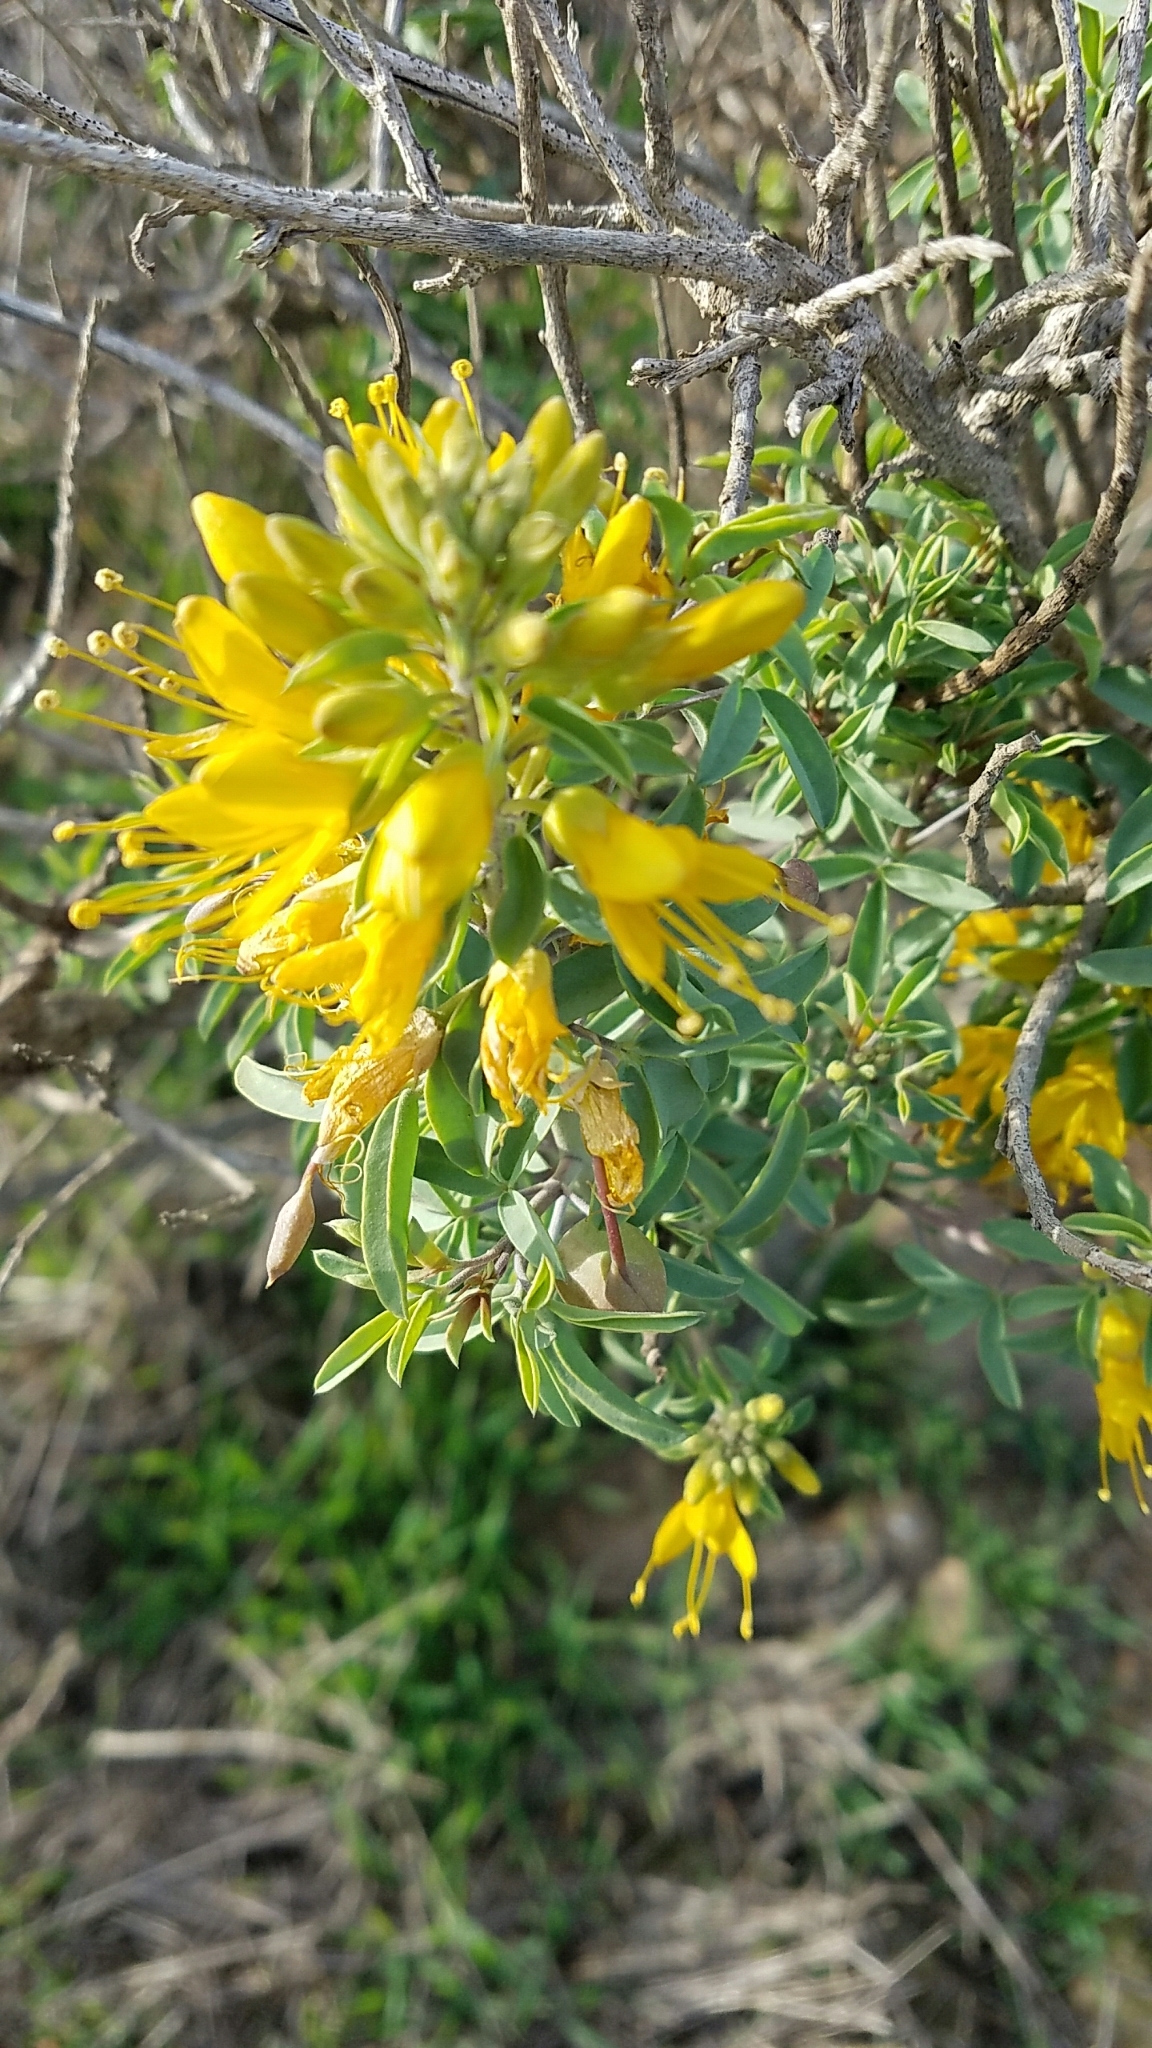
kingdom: Plantae
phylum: Tracheophyta
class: Magnoliopsida
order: Brassicales
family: Cleomaceae
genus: Cleomella
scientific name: Cleomella arborea
